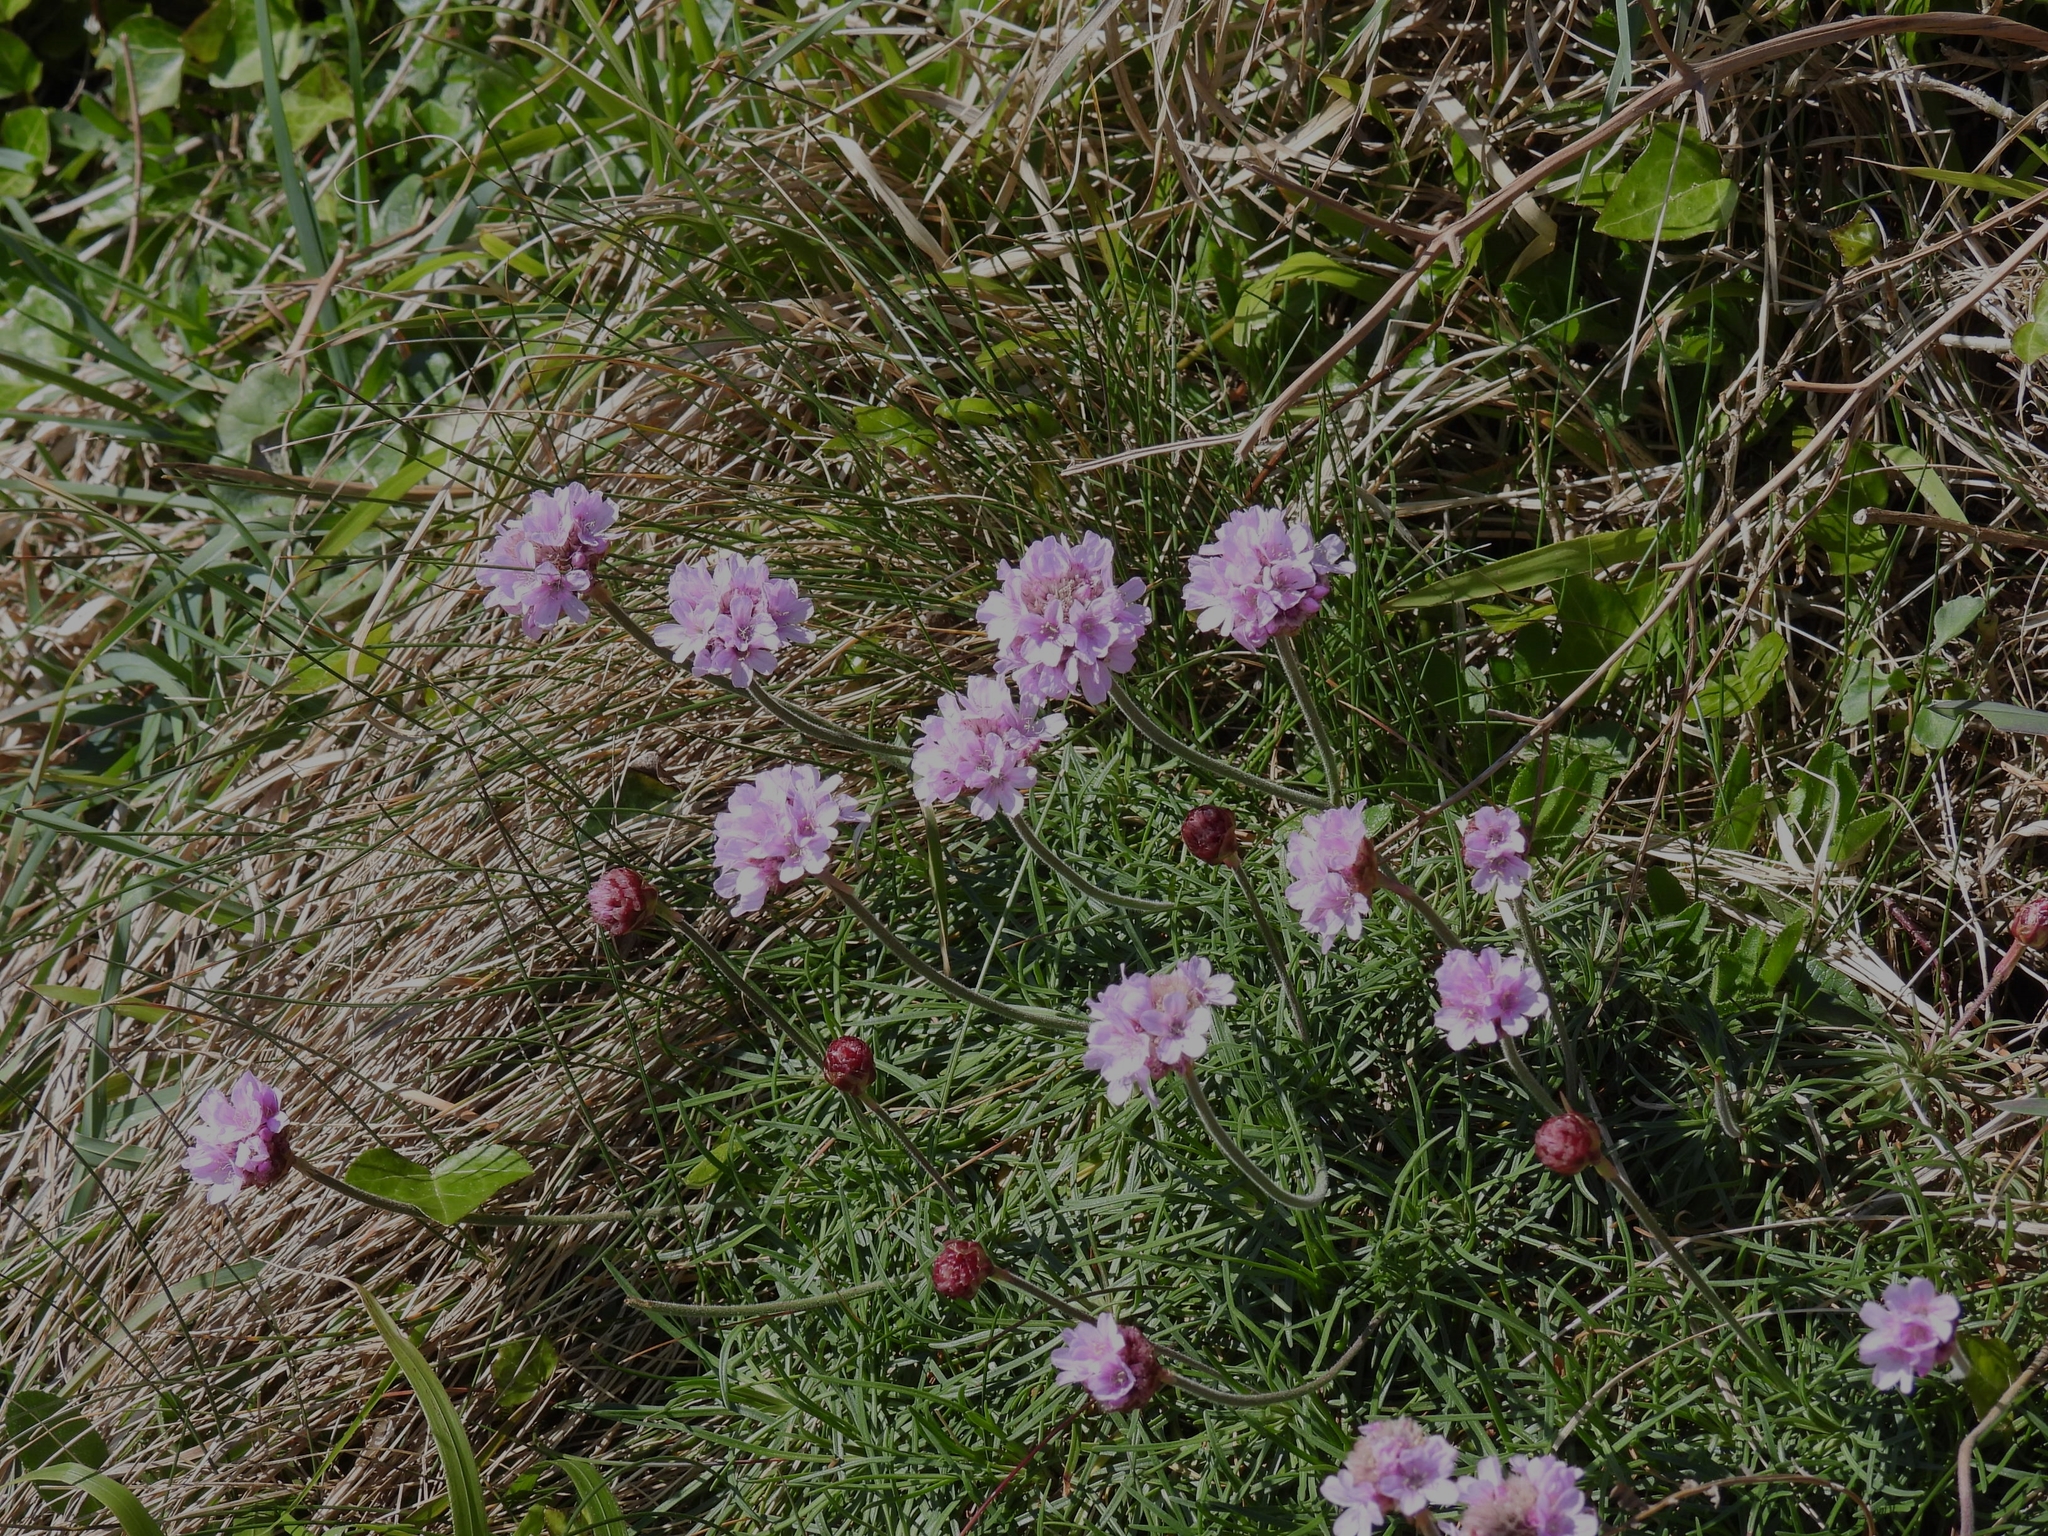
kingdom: Plantae
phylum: Tracheophyta
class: Magnoliopsida
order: Caryophyllales
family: Plumbaginaceae
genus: Armeria
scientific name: Armeria maritima
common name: Thrift
